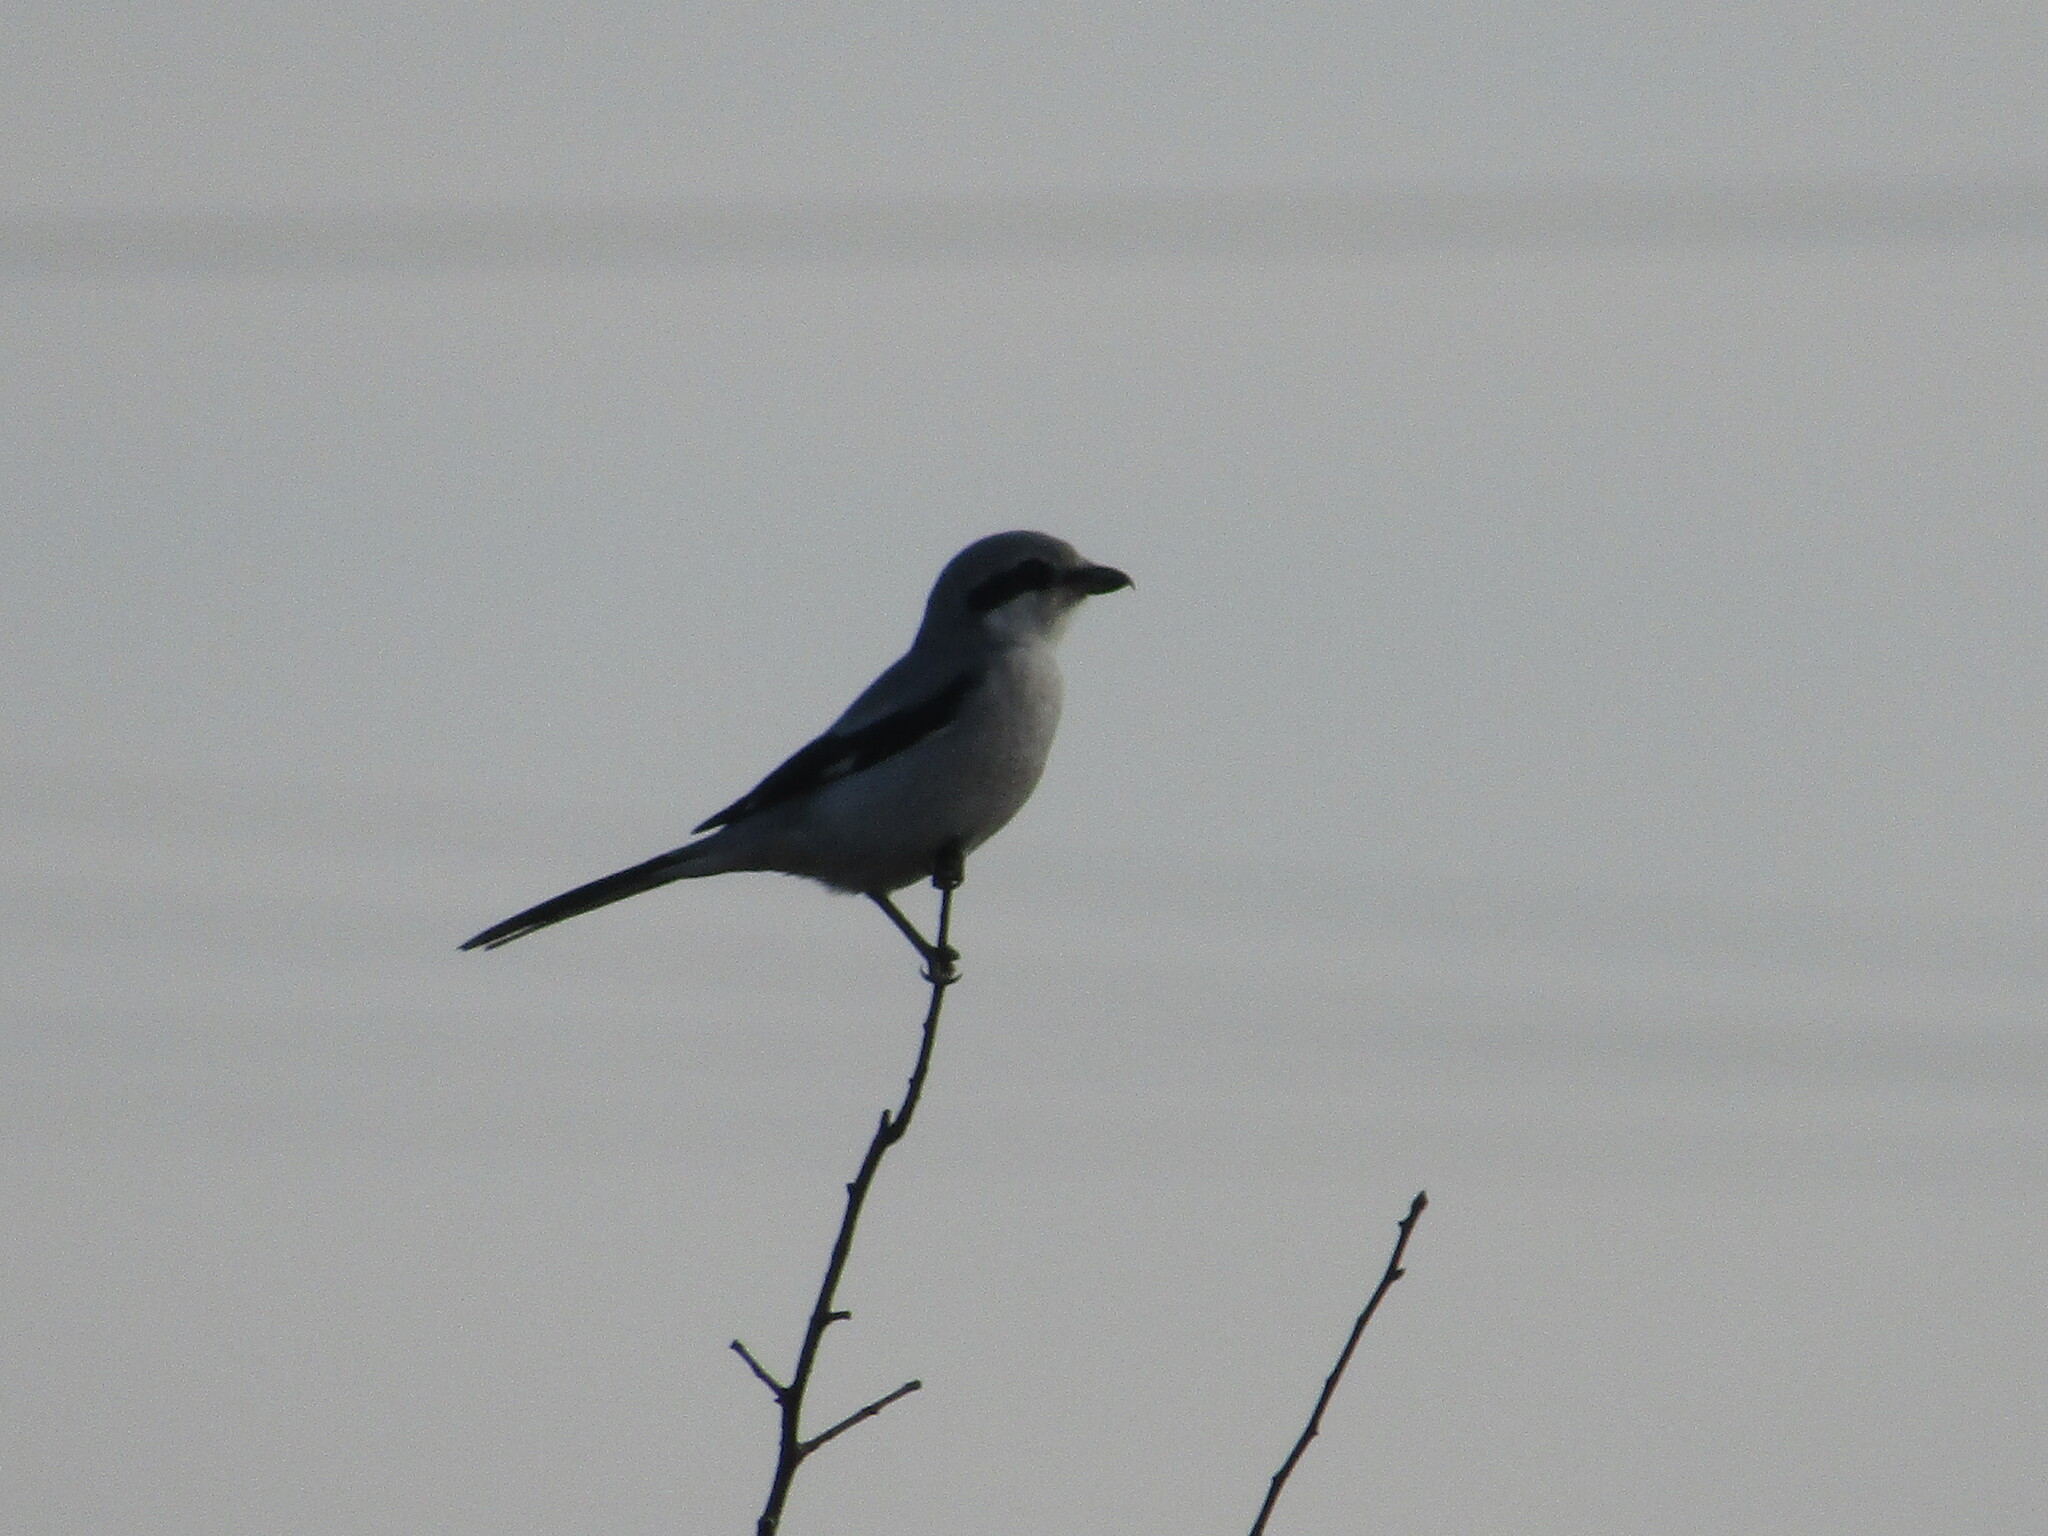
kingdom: Animalia
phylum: Chordata
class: Aves
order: Passeriformes
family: Laniidae
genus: Lanius
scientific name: Lanius excubitor
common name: Great grey shrike
